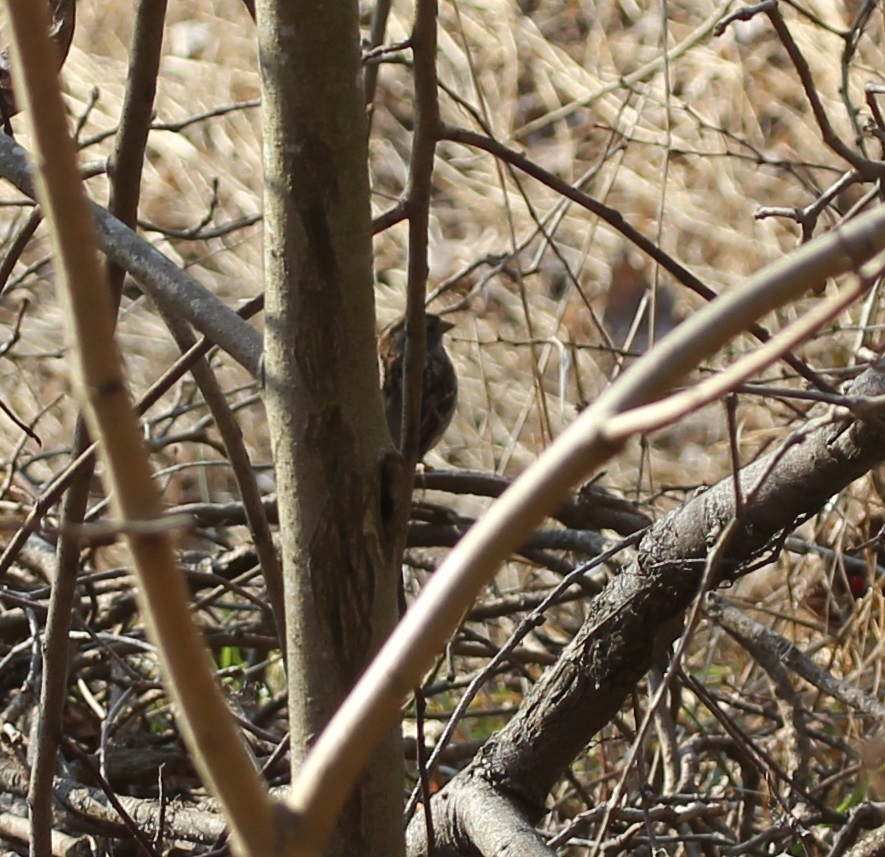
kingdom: Animalia
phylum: Chordata
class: Aves
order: Passeriformes
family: Passerellidae
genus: Zonotrichia
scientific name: Zonotrichia albicollis
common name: White-throated sparrow
